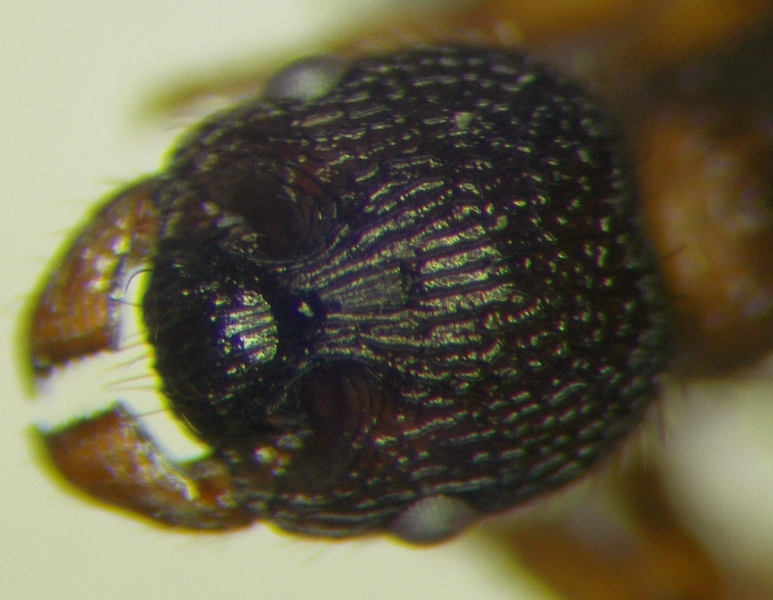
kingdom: Animalia
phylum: Arthropoda
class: Insecta
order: Hymenoptera
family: Formicidae
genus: Myrmica
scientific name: Myrmica schencki
